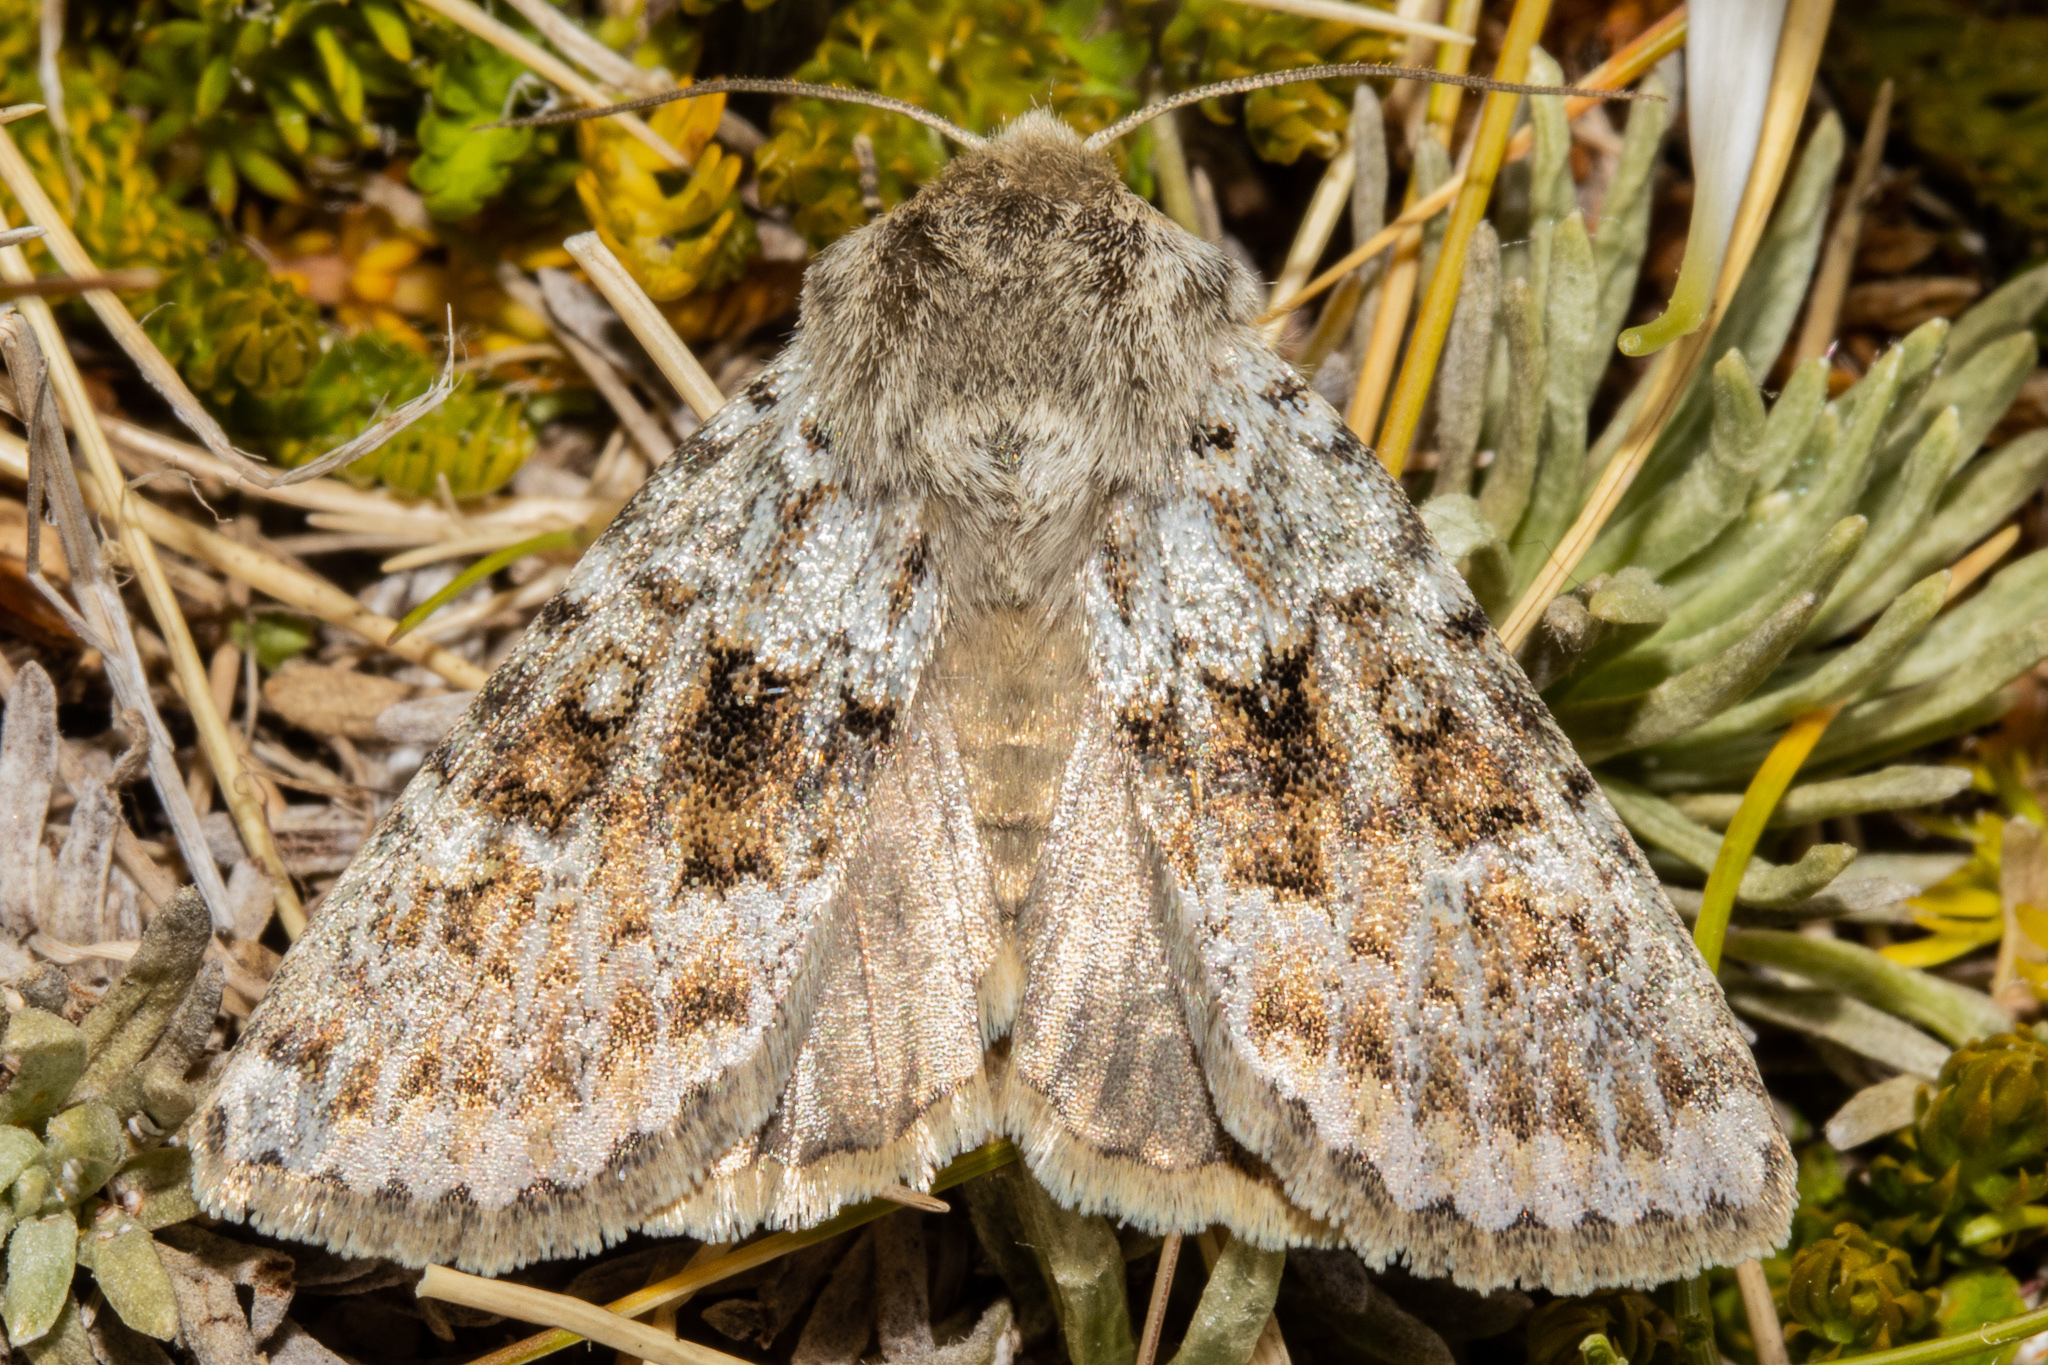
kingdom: Animalia
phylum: Arthropoda
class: Insecta
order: Lepidoptera
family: Noctuidae
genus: Ichneutica
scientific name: Ichneutica
